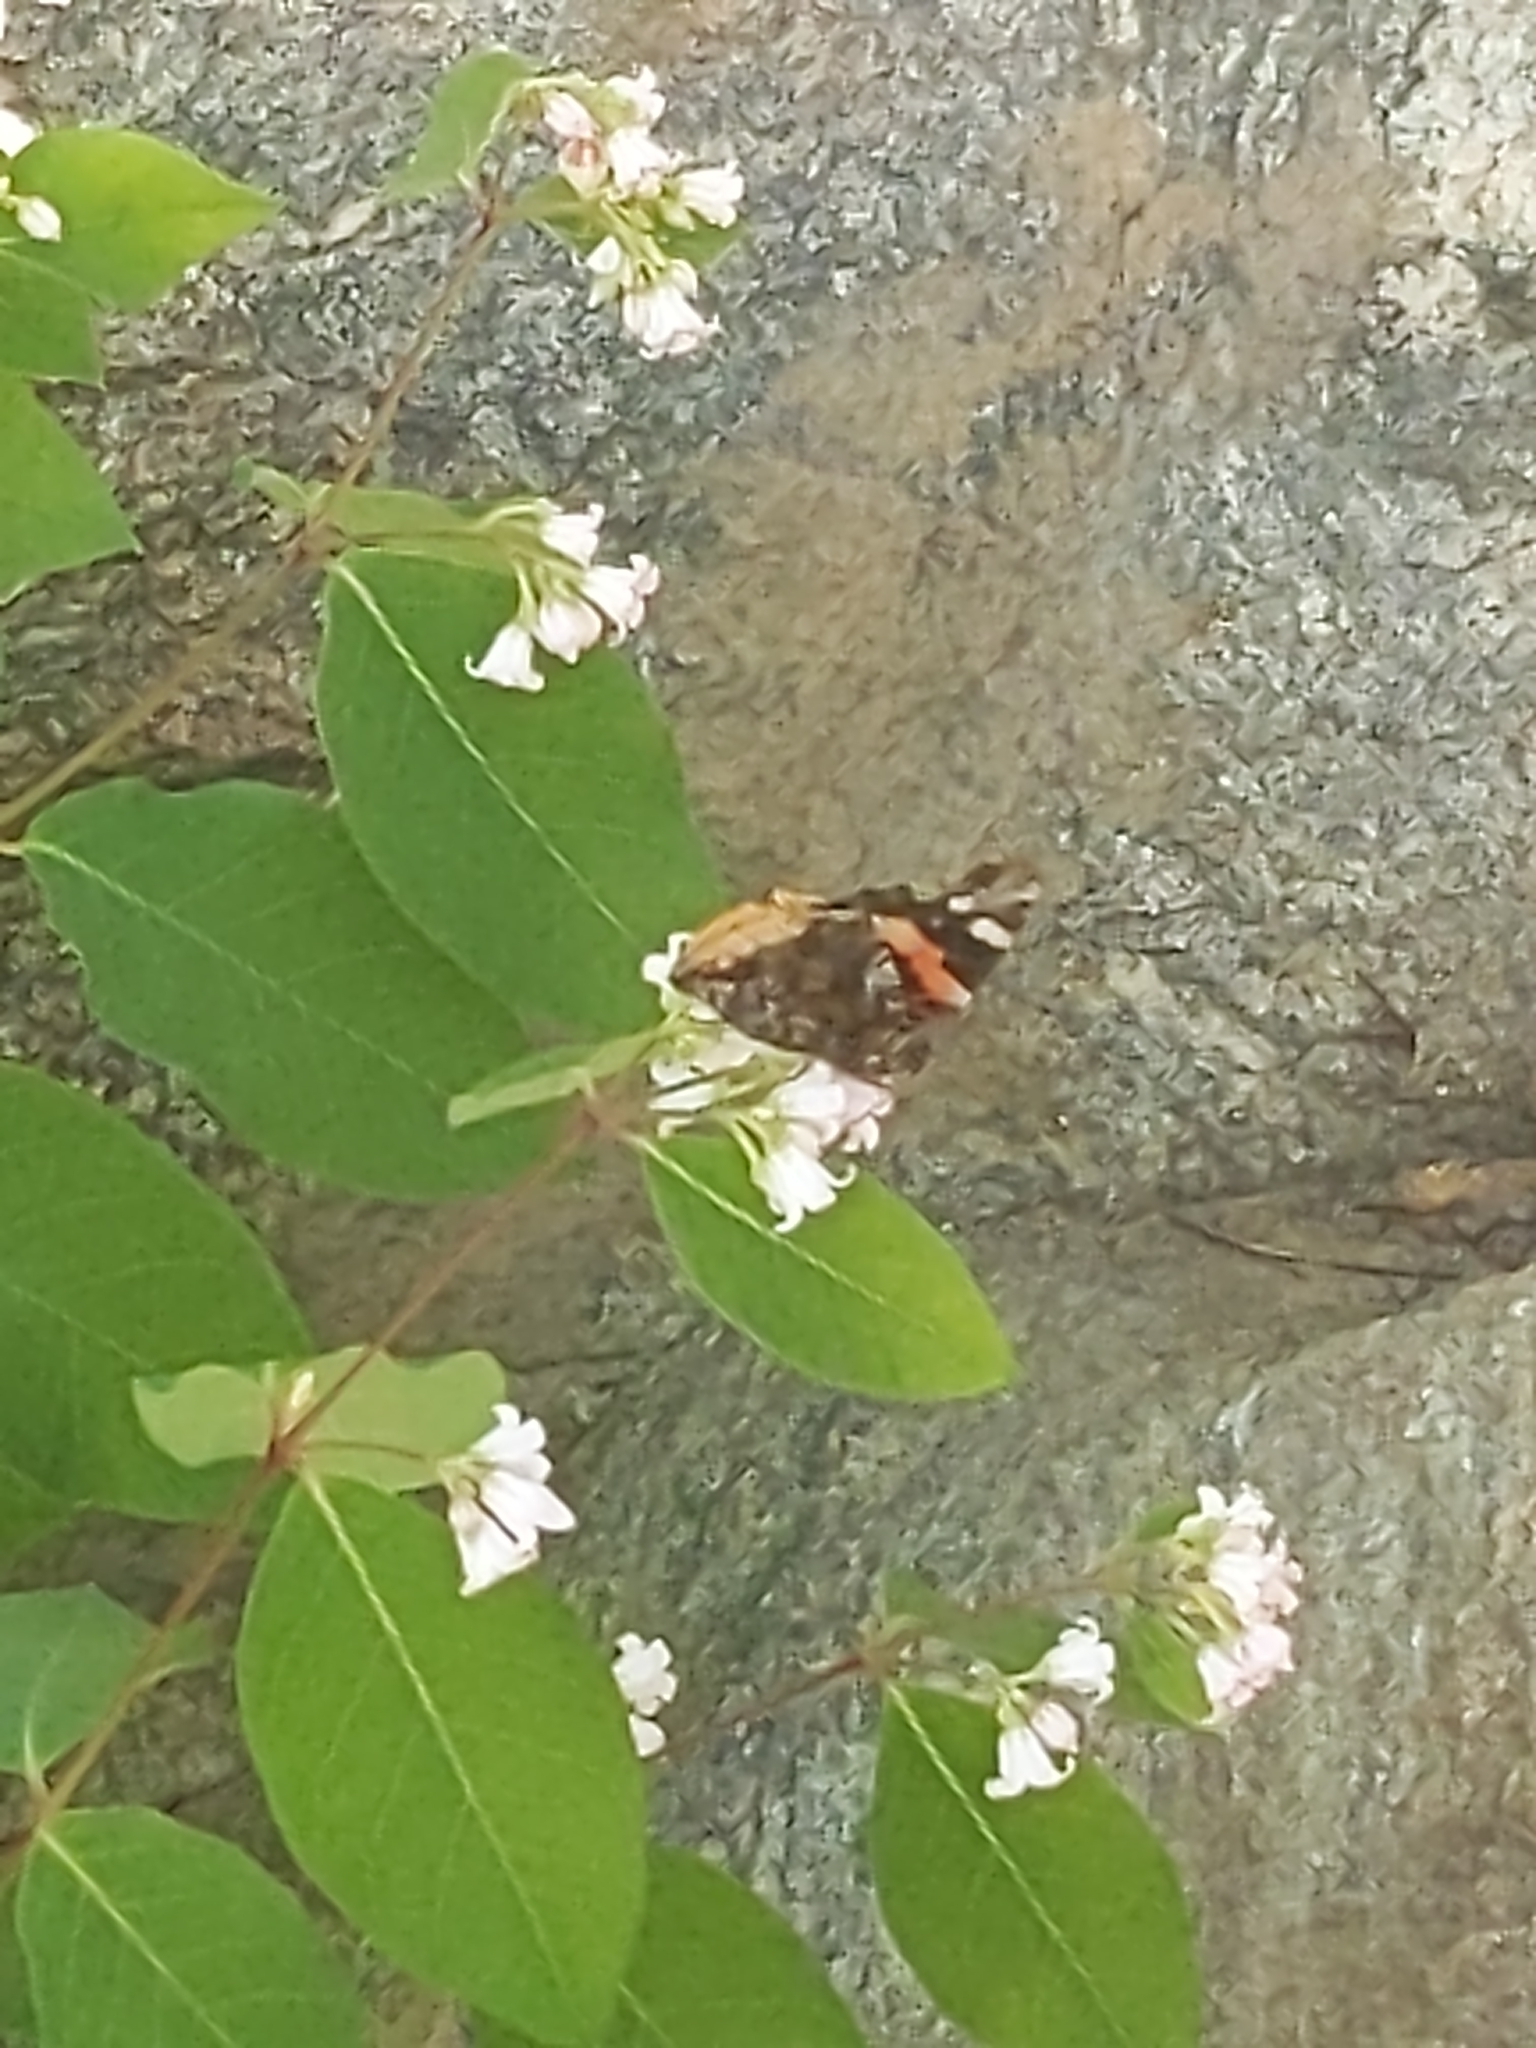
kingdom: Animalia
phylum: Arthropoda
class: Insecta
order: Lepidoptera
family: Nymphalidae
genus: Vanessa
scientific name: Vanessa atalanta
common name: Red admiral
